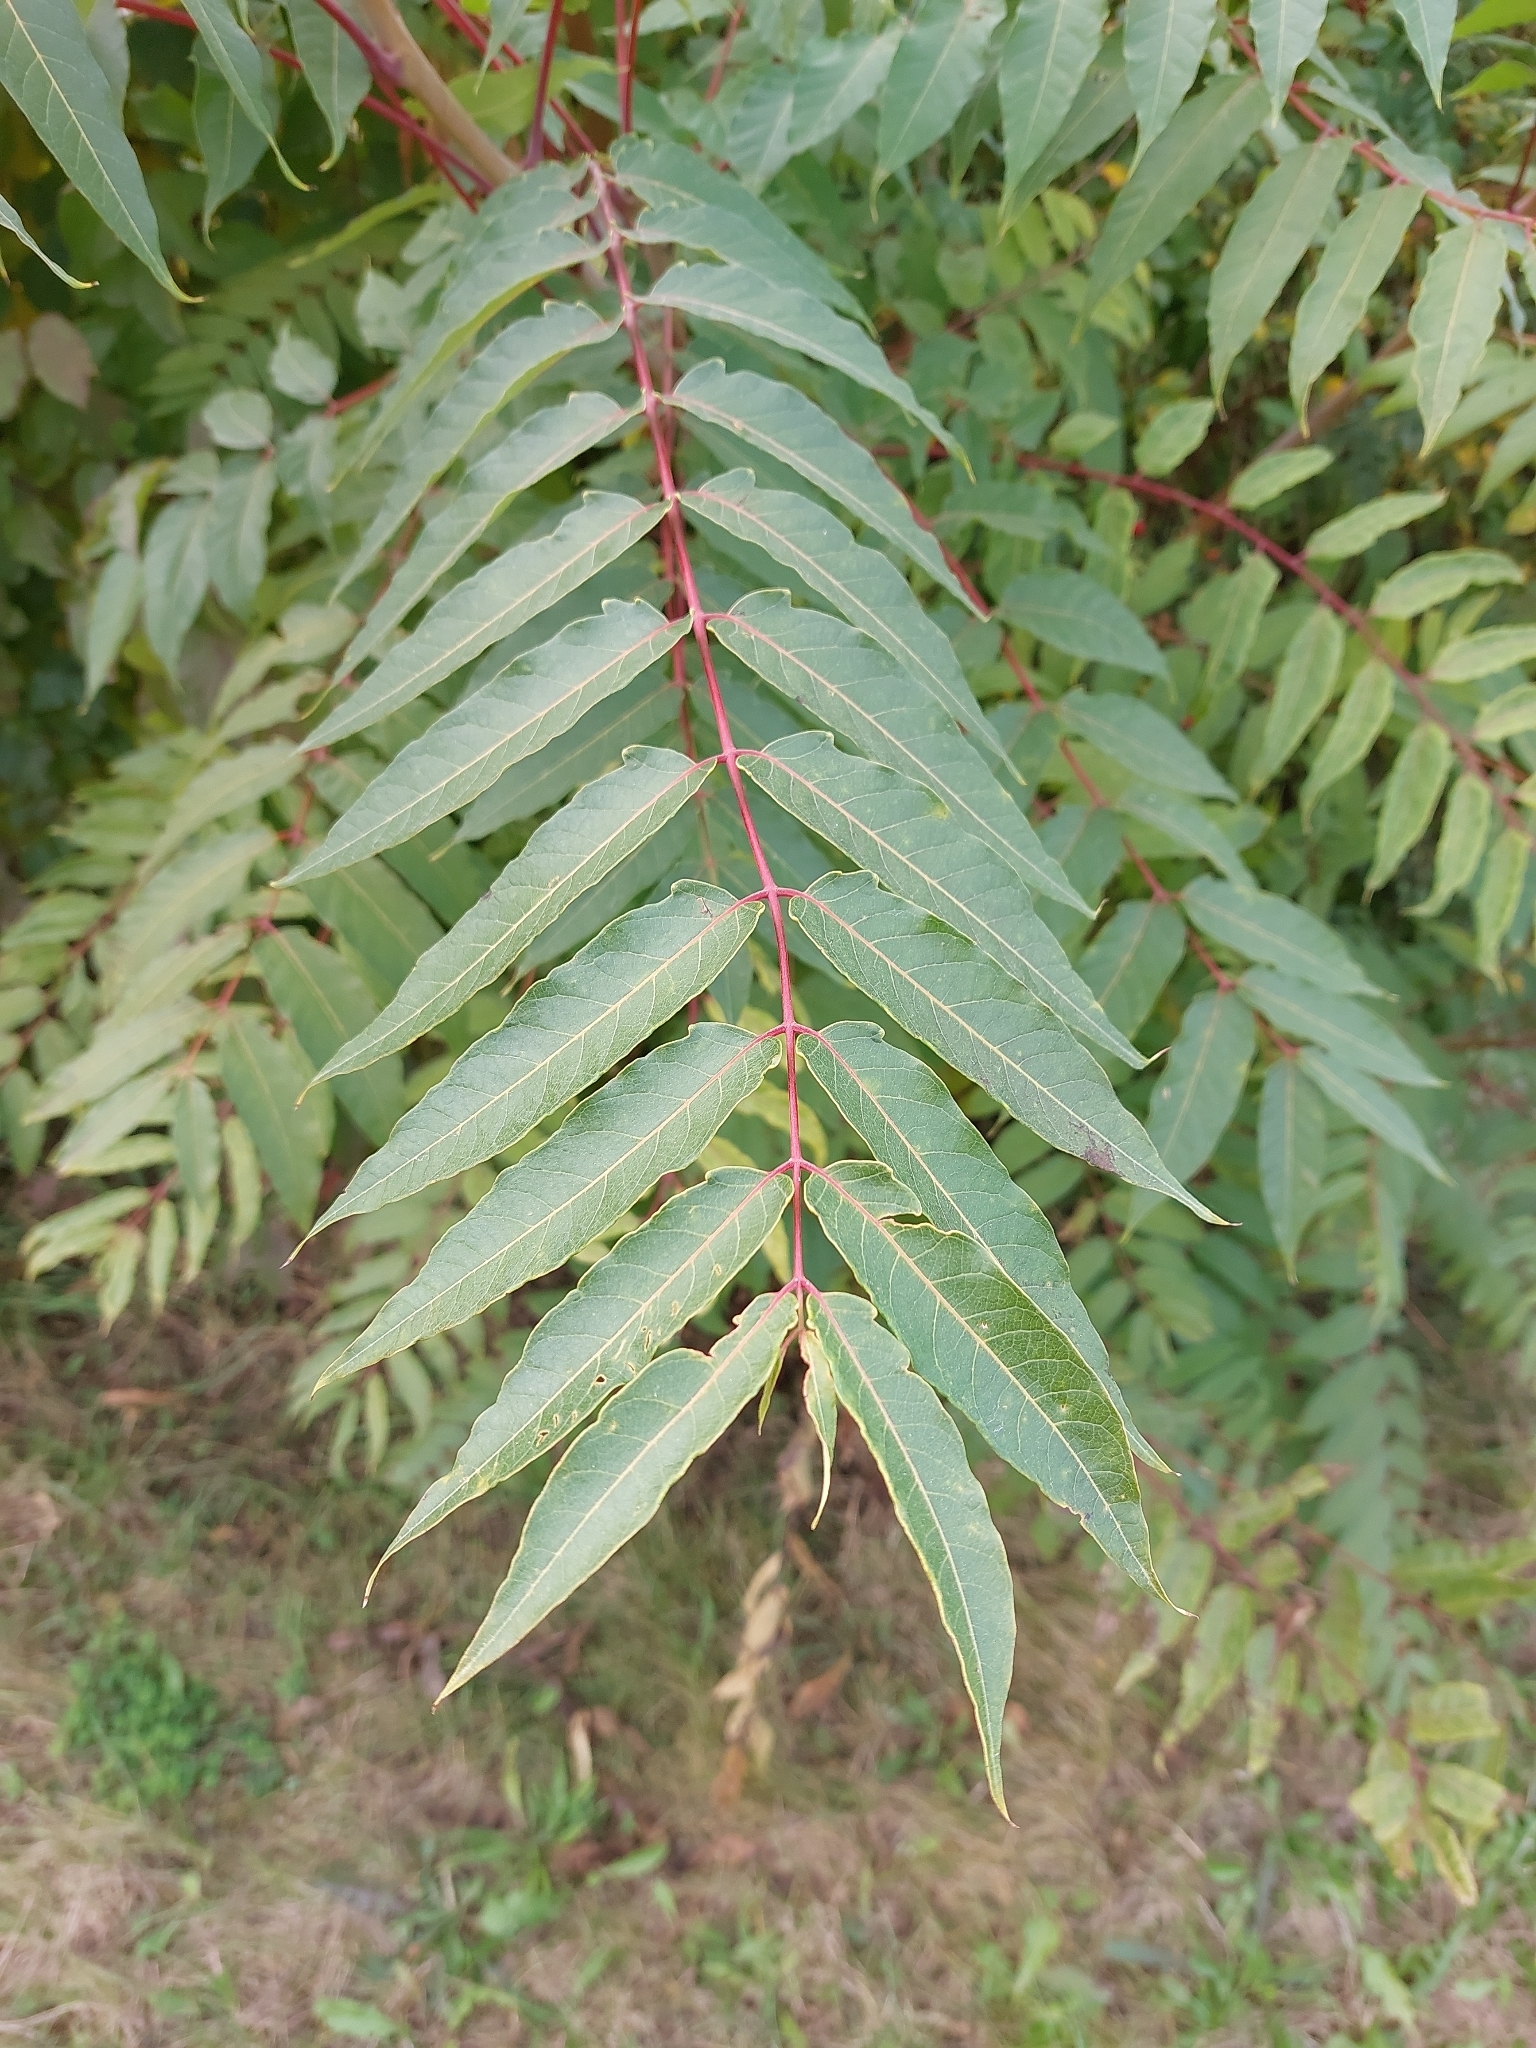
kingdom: Plantae
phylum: Tracheophyta
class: Magnoliopsida
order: Sapindales
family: Simaroubaceae
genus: Ailanthus
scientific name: Ailanthus altissima
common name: Tree-of-heaven
